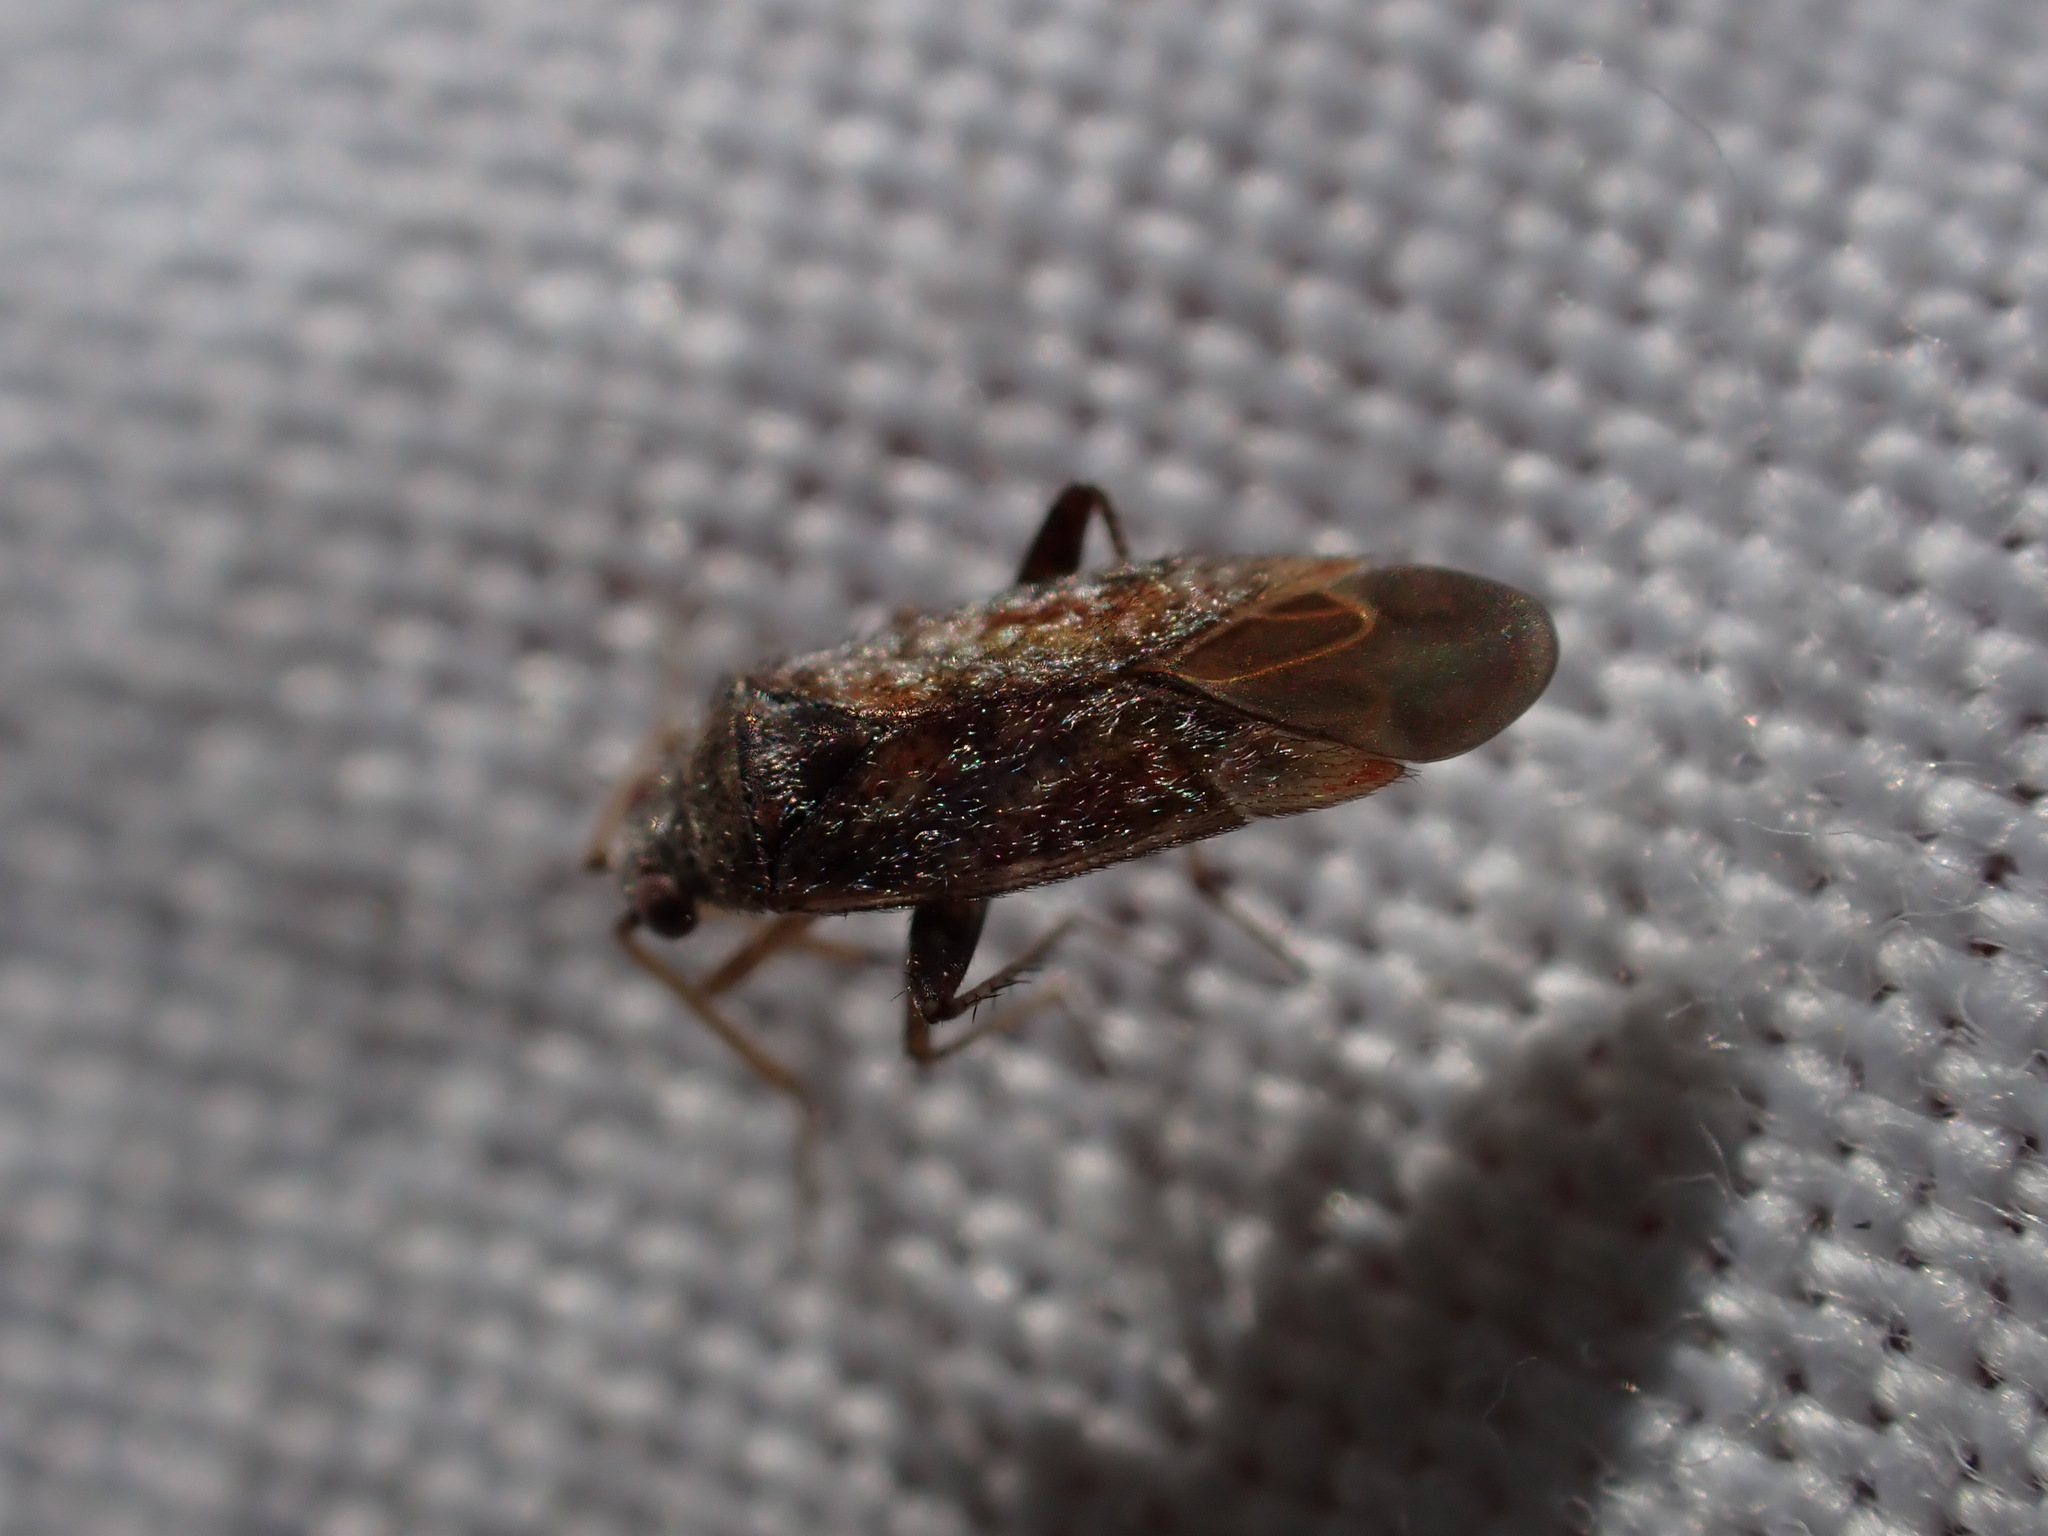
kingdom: Animalia
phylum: Arthropoda
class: Insecta
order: Hemiptera
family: Miridae
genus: Compsidolon
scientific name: Compsidolon crotchi
